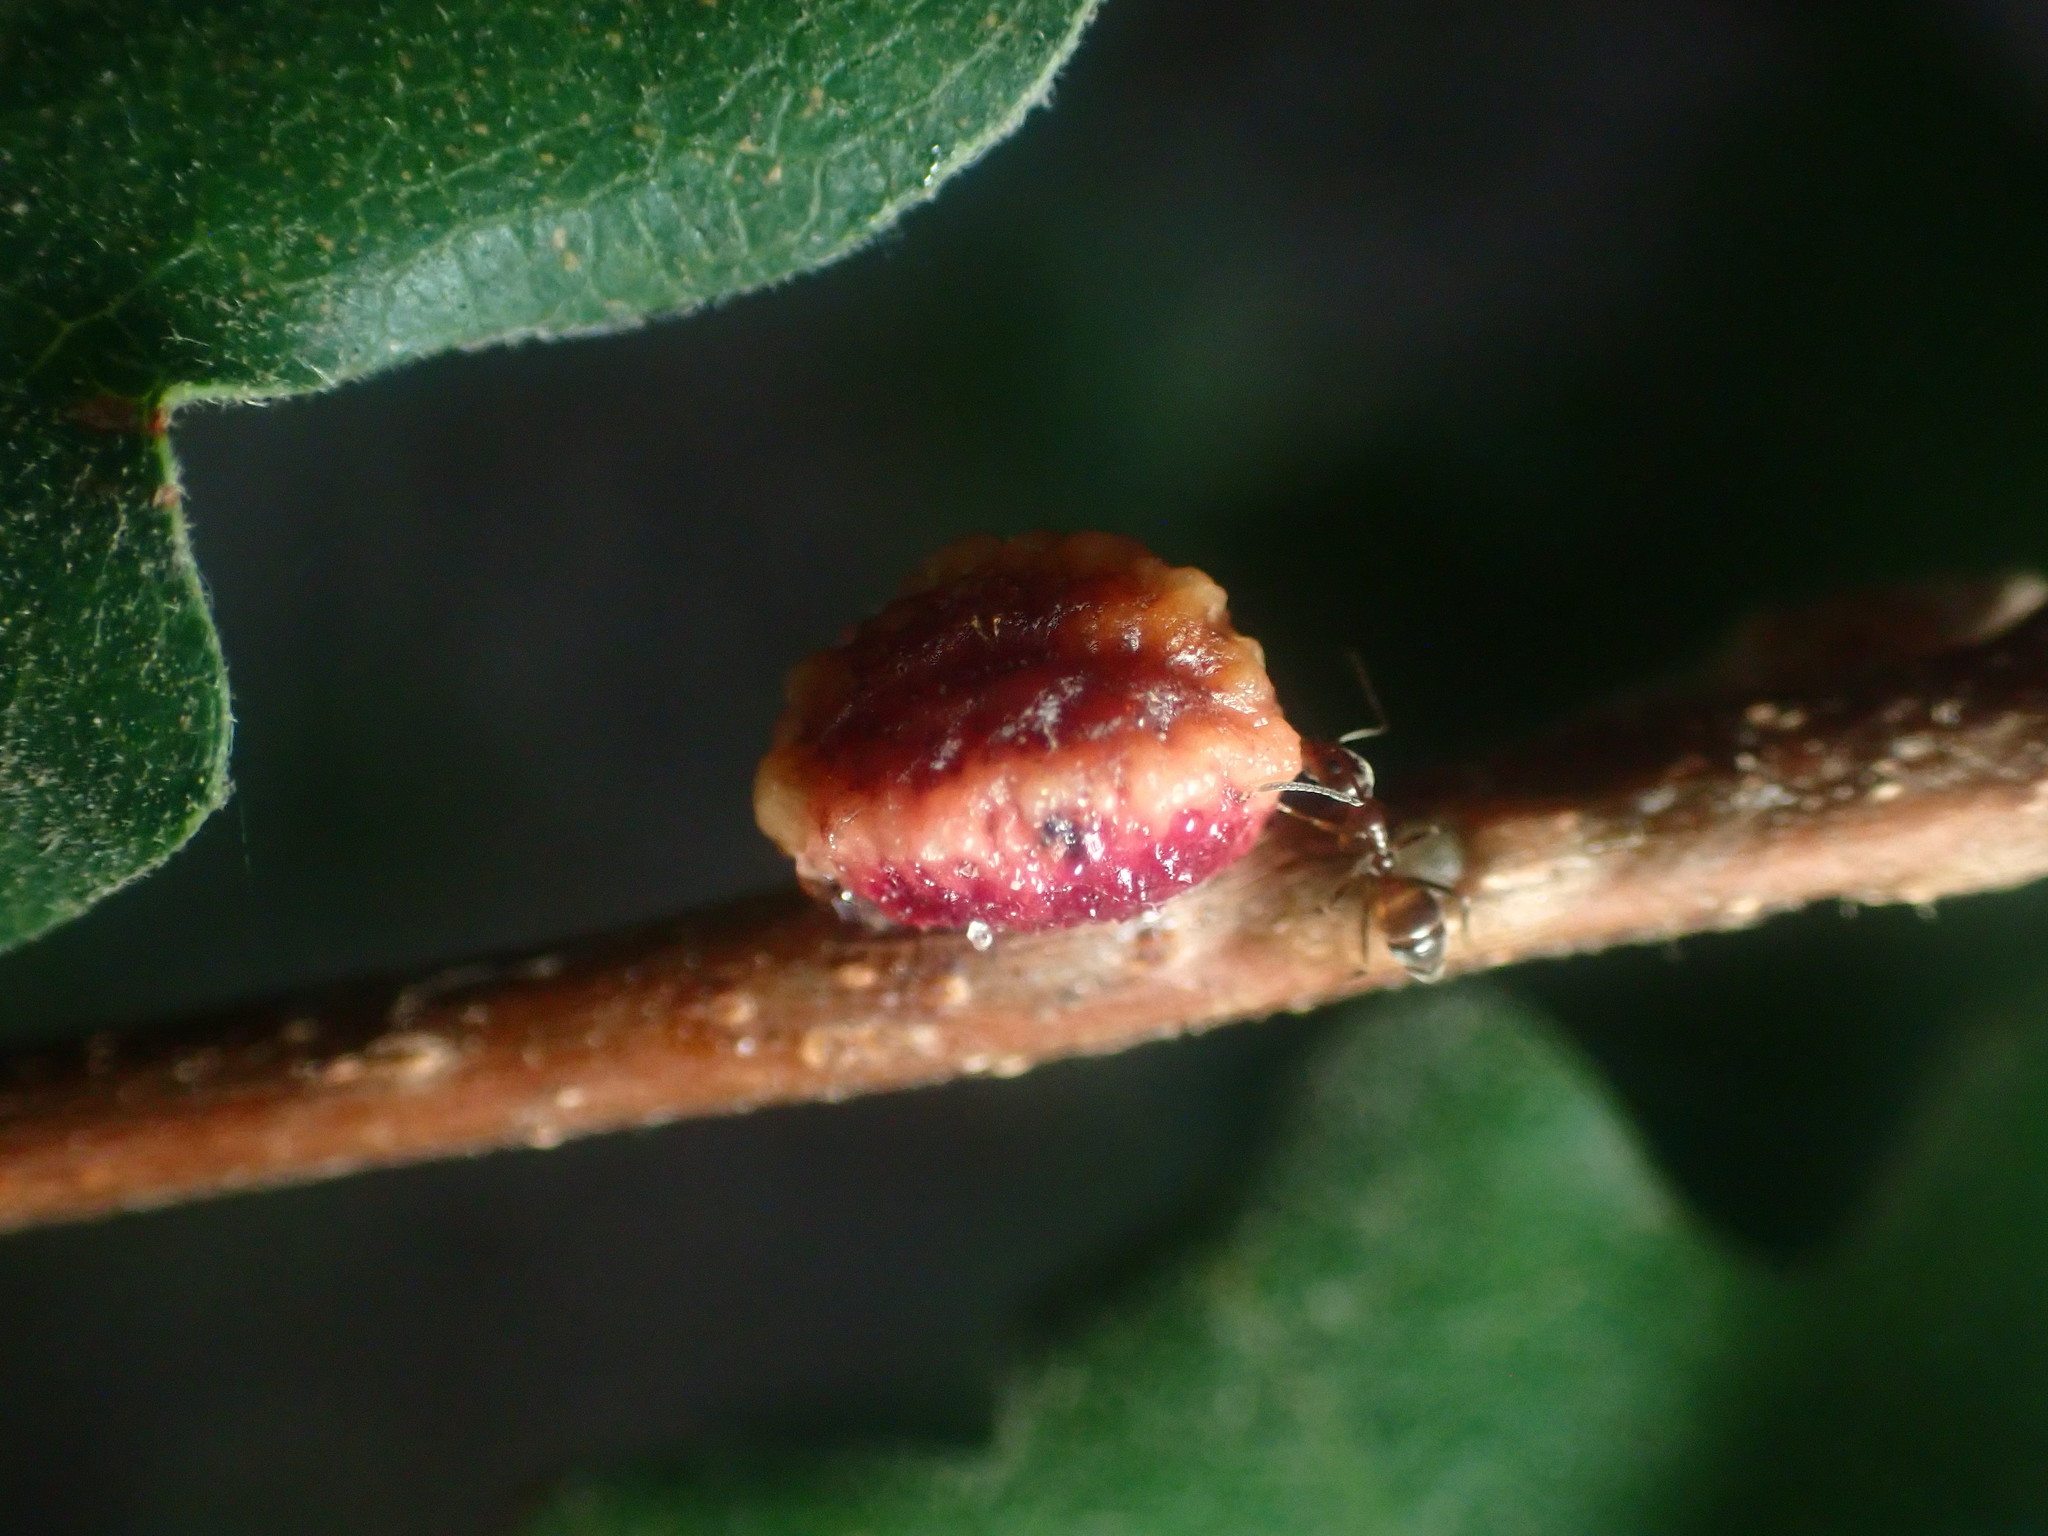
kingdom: Animalia
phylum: Arthropoda
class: Insecta
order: Hymenoptera
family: Cynipidae
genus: Disholcaspis
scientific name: Disholcaspis
